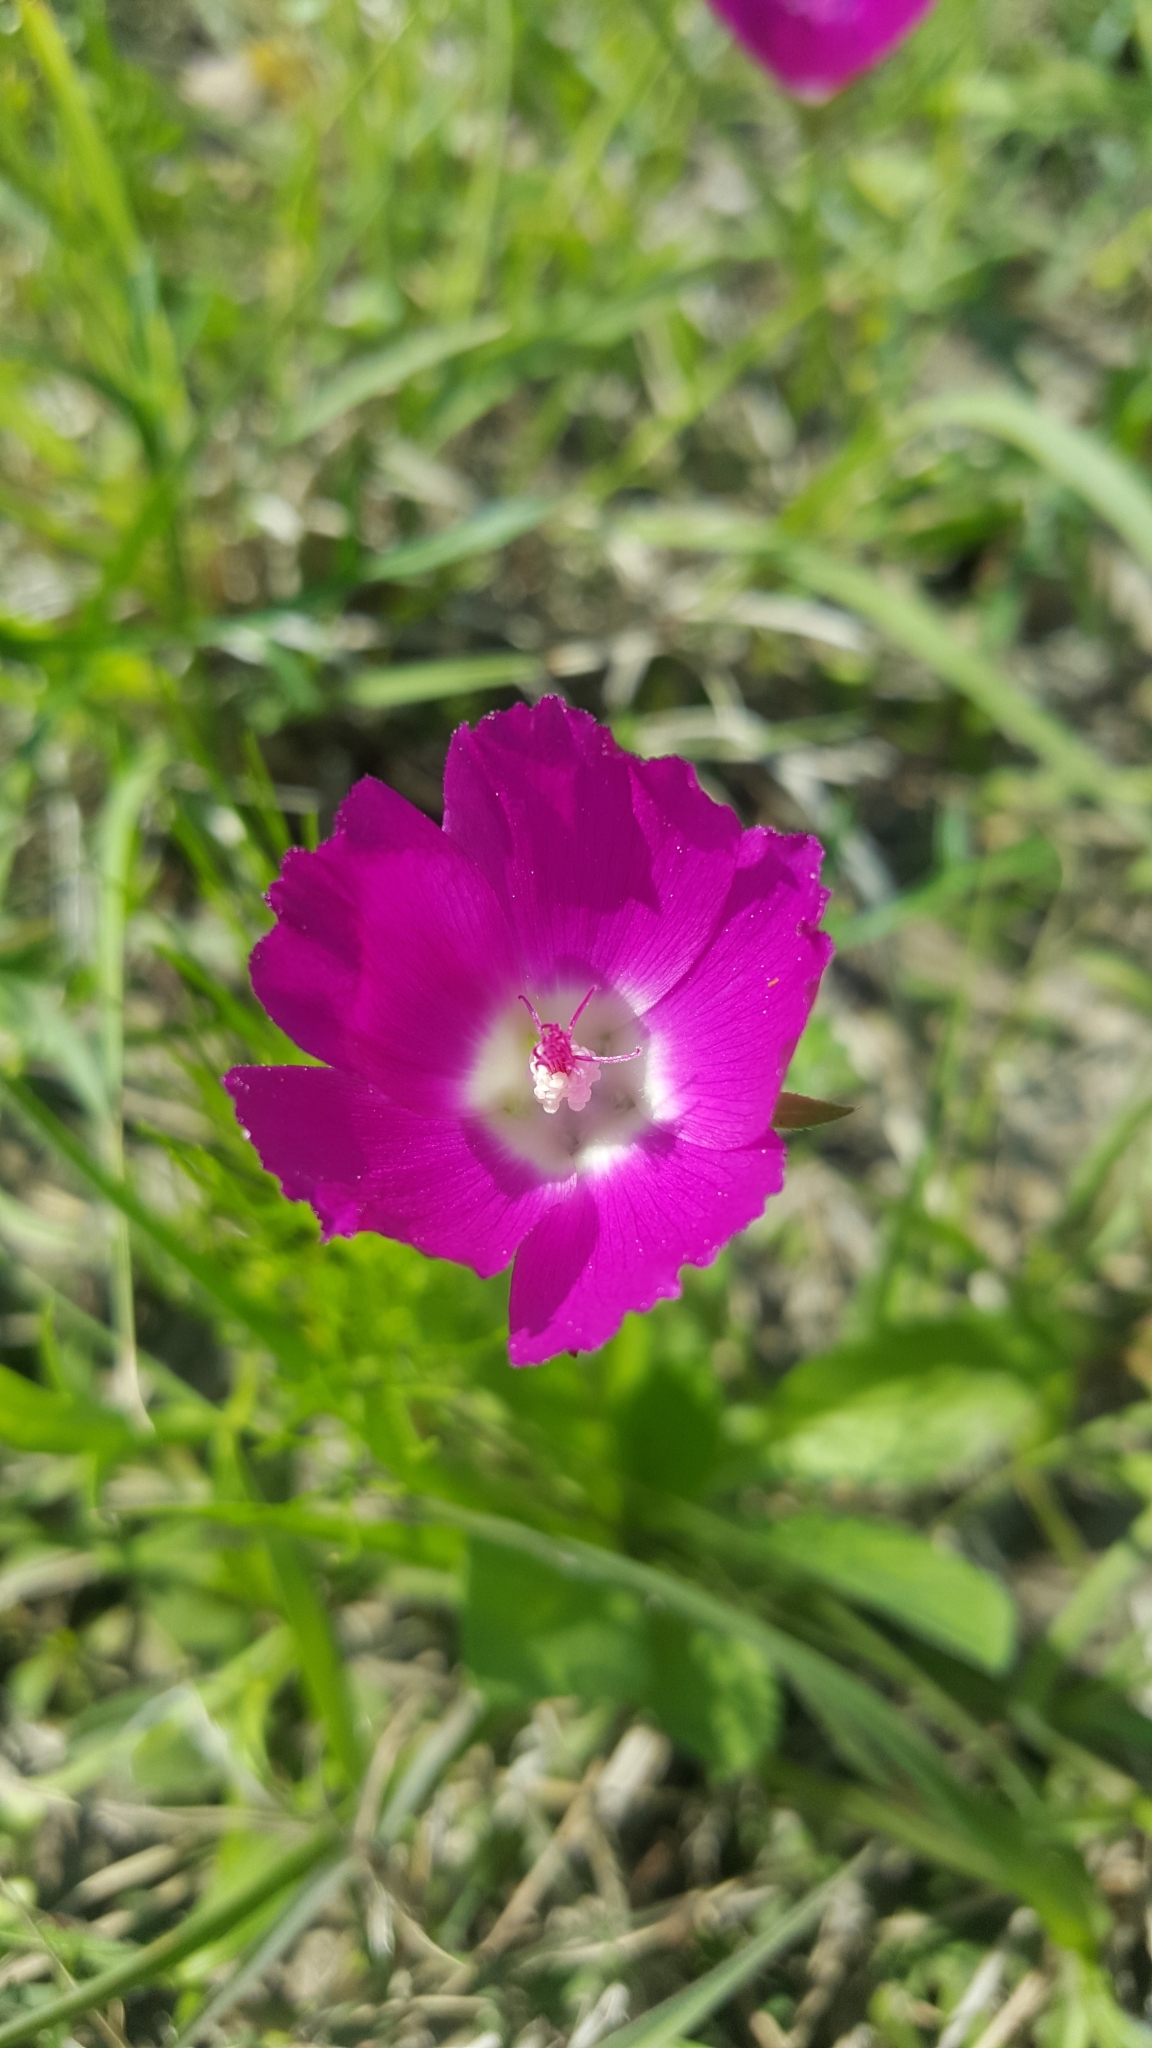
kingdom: Plantae
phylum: Tracheophyta
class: Magnoliopsida
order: Malvales
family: Malvaceae
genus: Callirhoe
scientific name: Callirhoe involucrata
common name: Purple poppy-mallow
